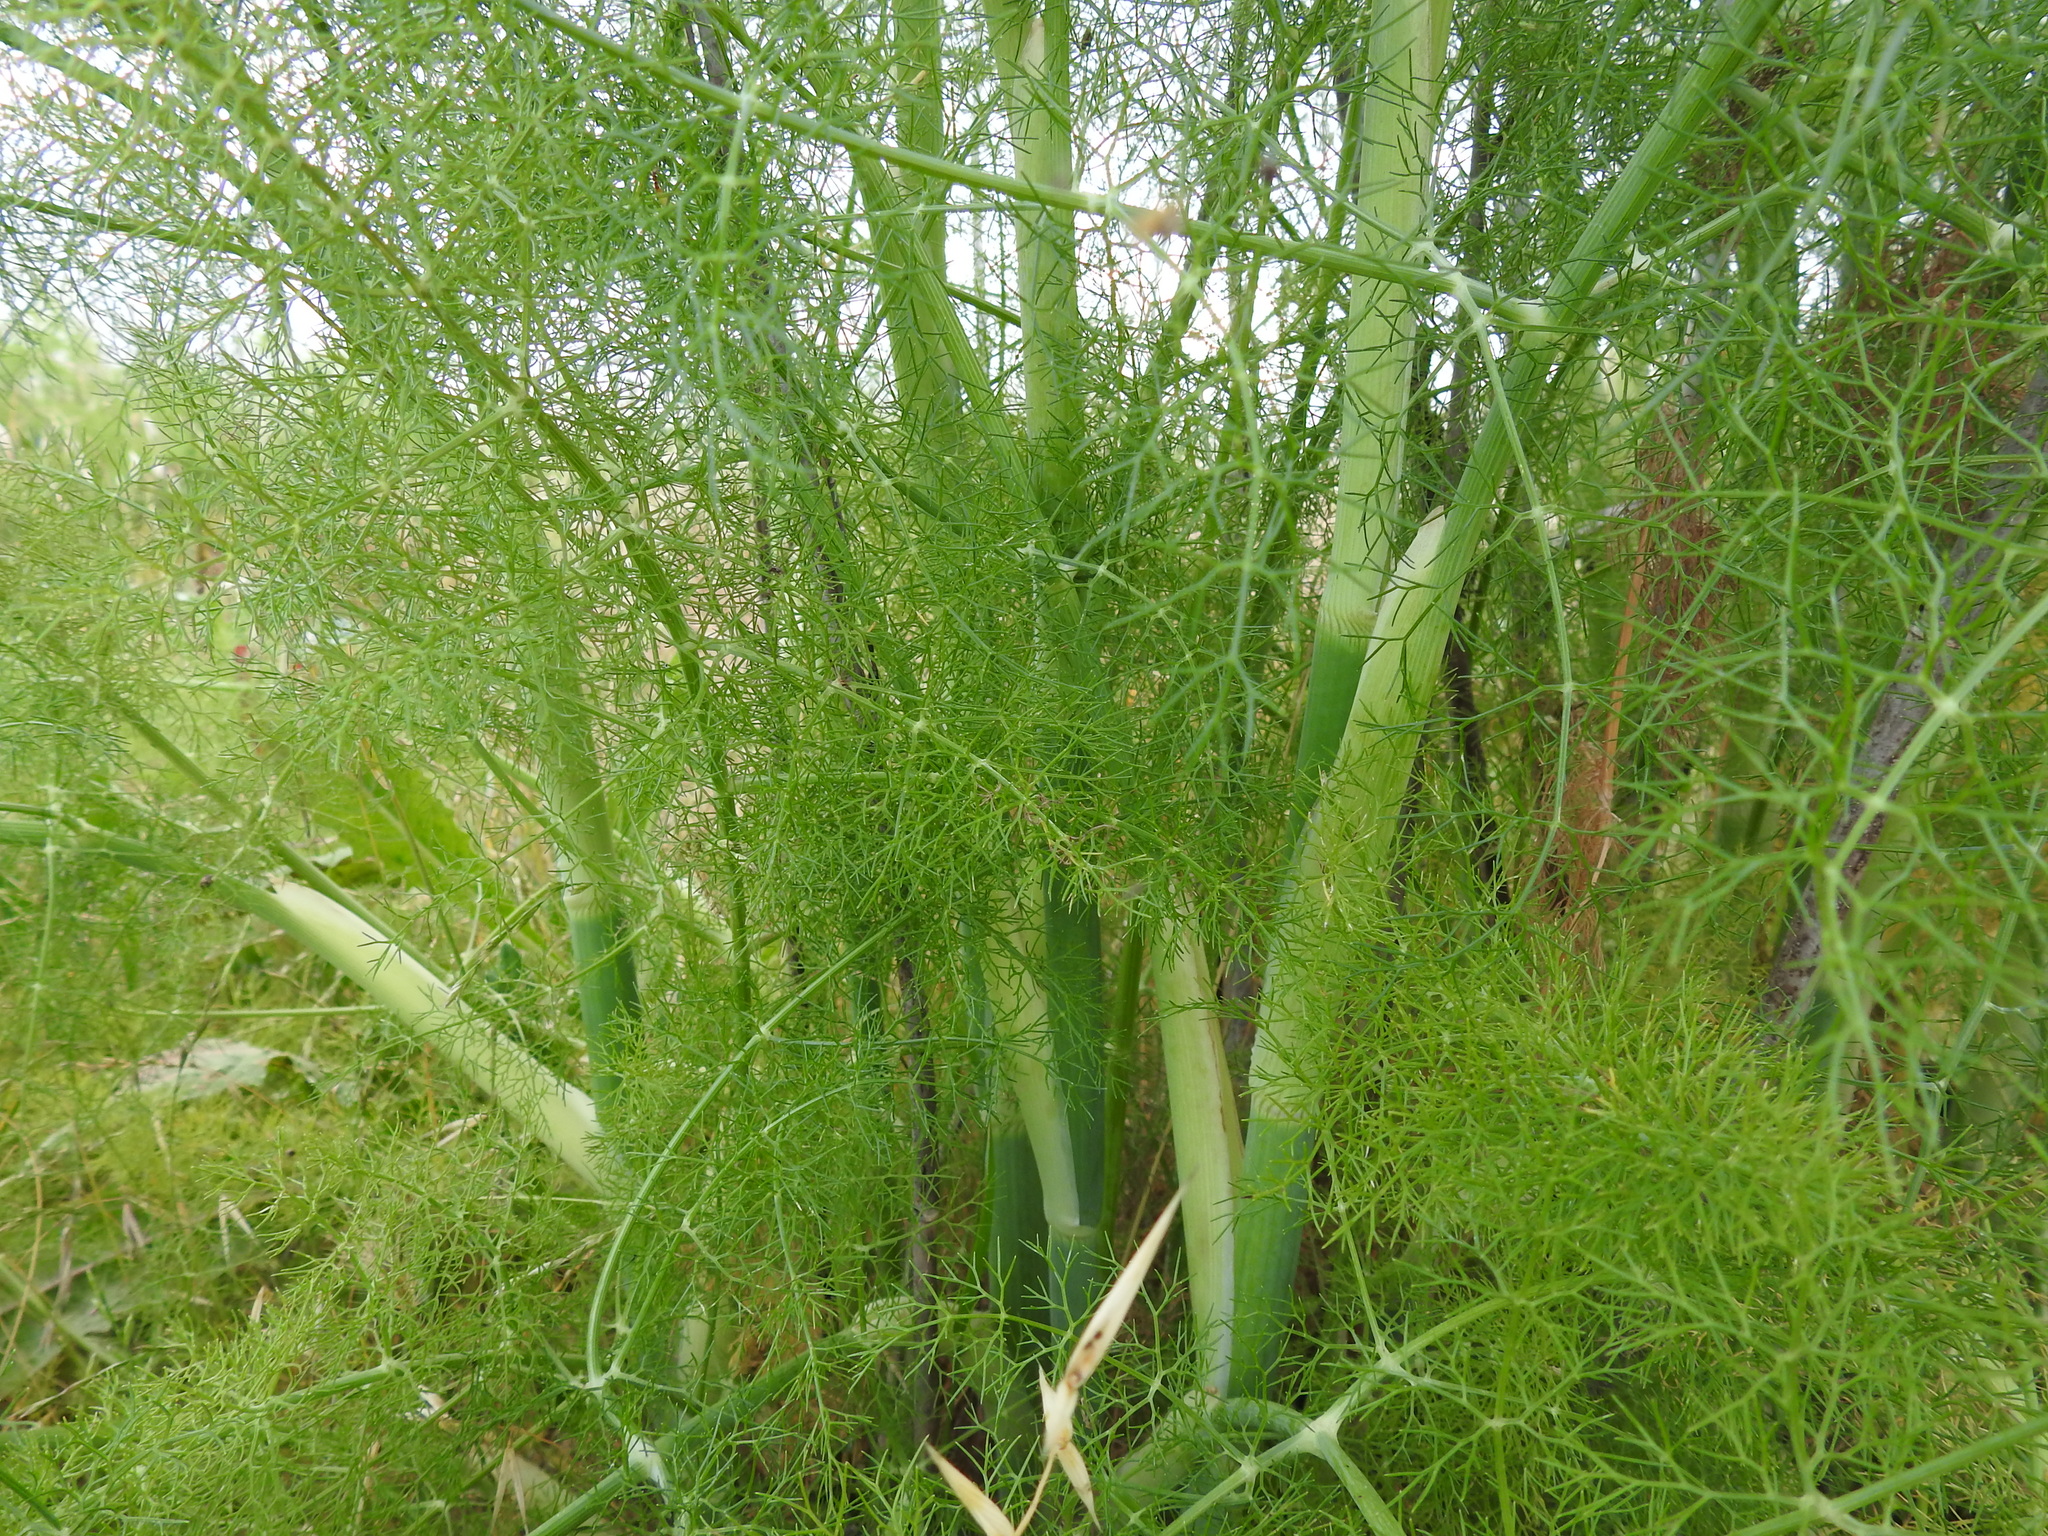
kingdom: Plantae
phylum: Tracheophyta
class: Magnoliopsida
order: Apiales
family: Apiaceae
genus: Foeniculum
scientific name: Foeniculum vulgare
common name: Fennel
